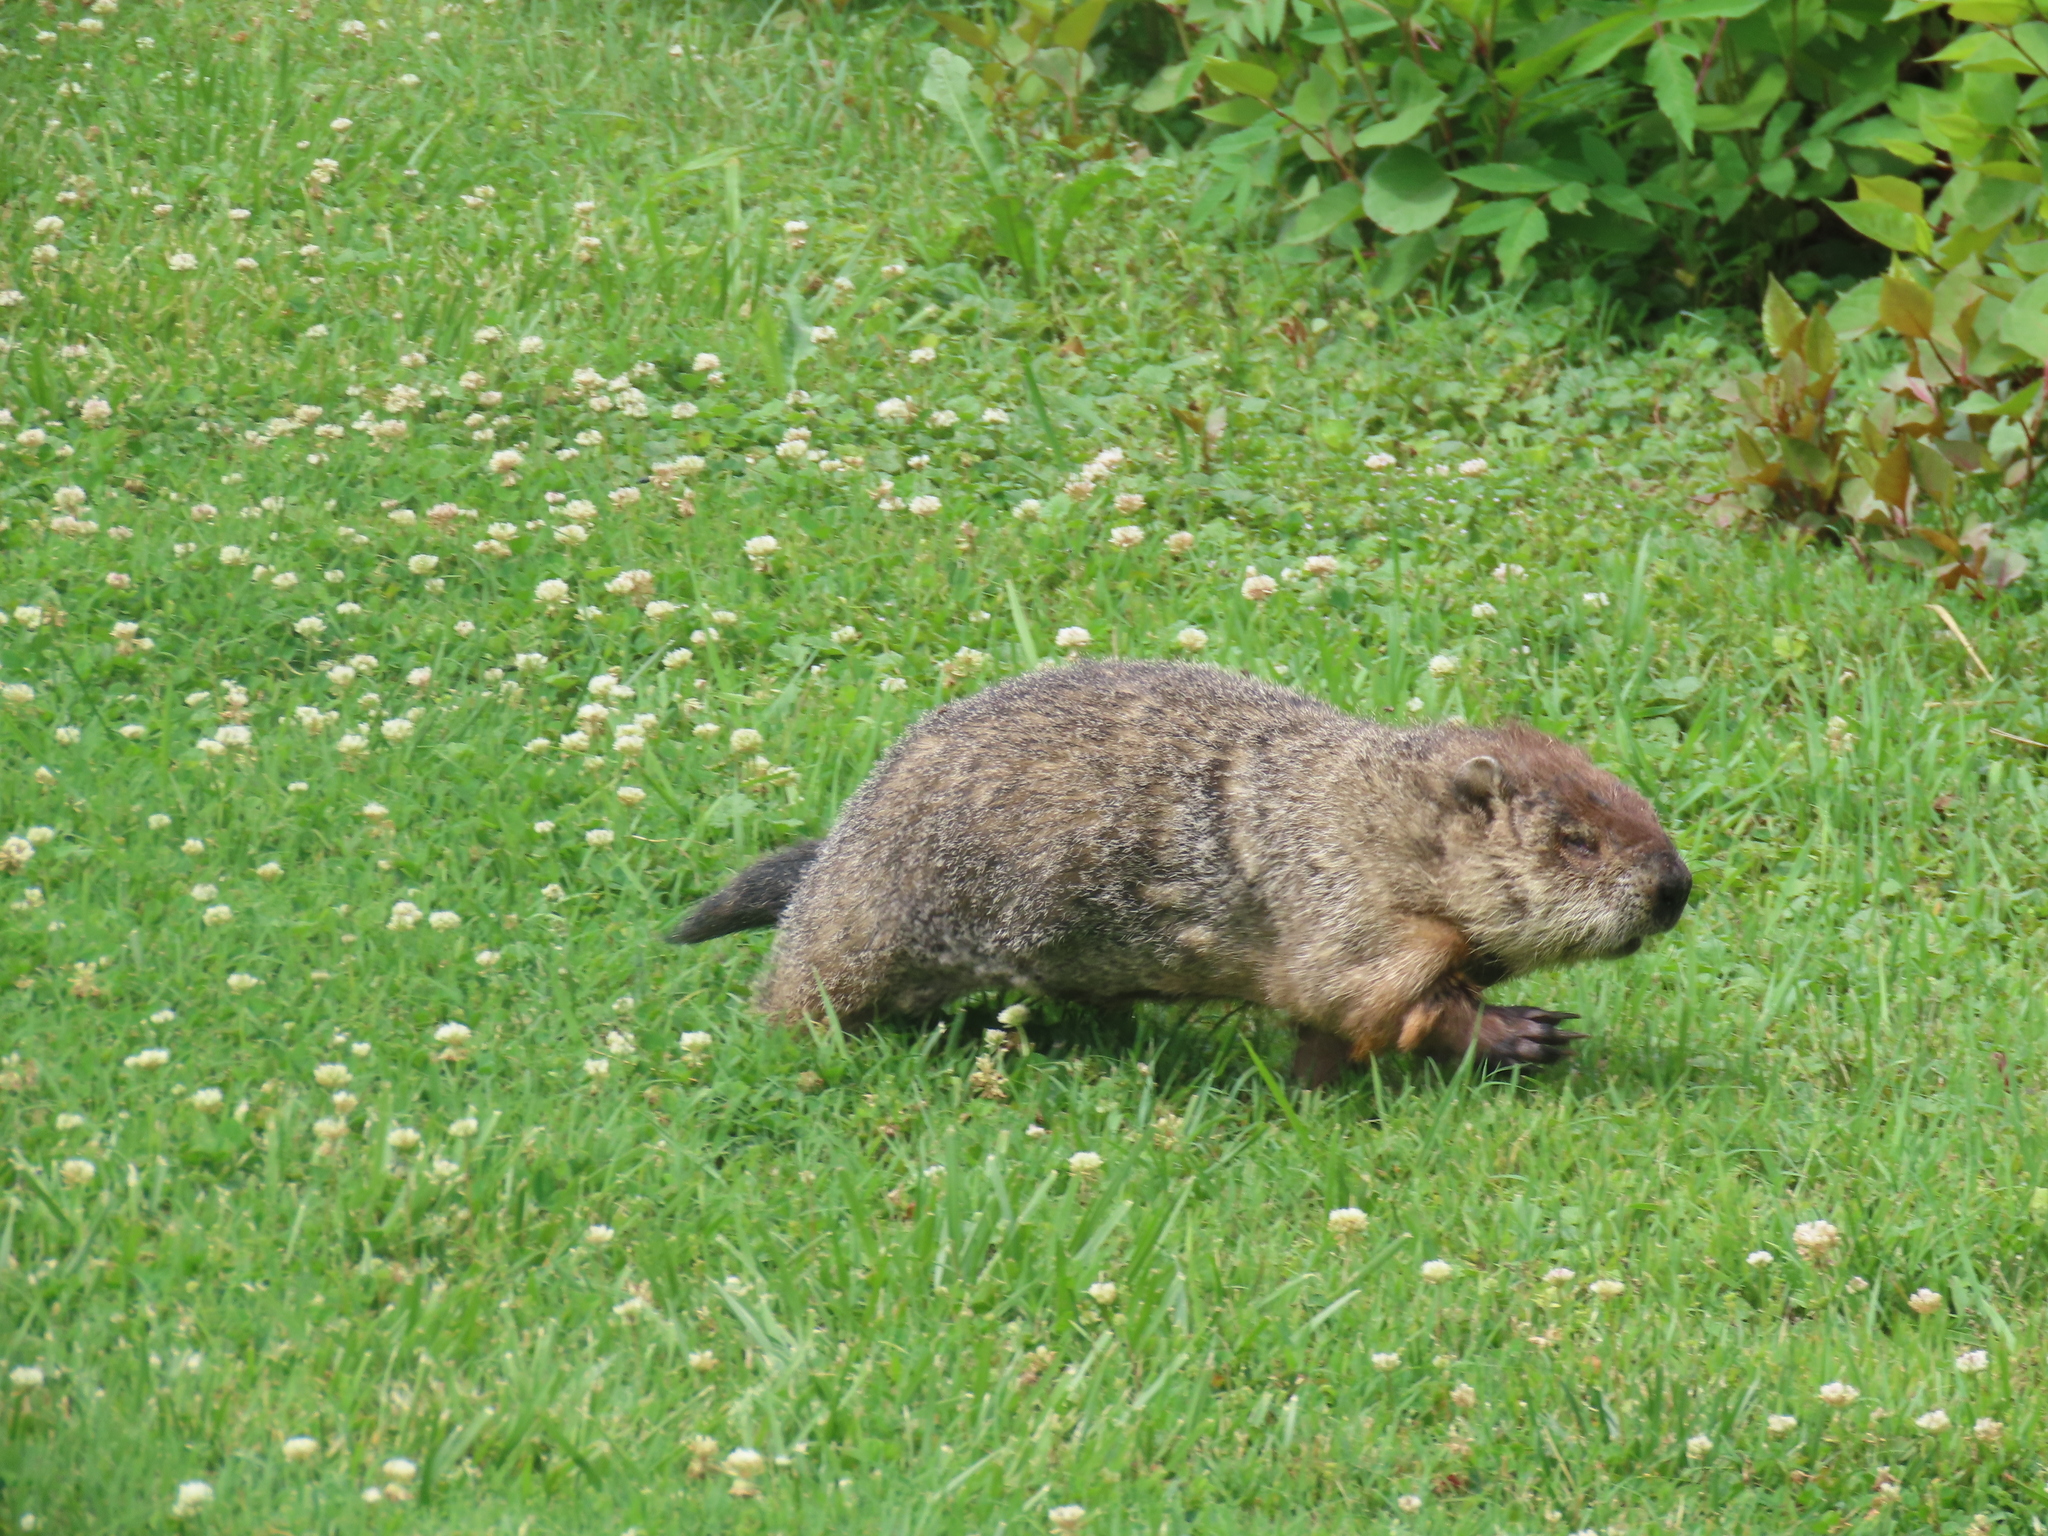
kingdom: Animalia
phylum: Chordata
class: Mammalia
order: Rodentia
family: Sciuridae
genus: Marmota
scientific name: Marmota monax
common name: Groundhog
